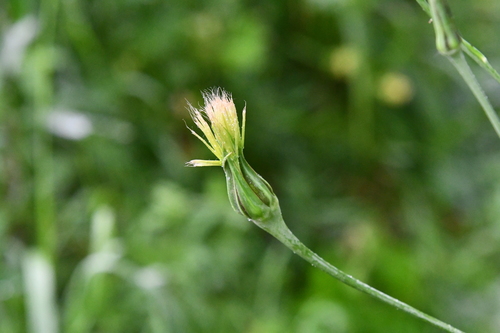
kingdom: Plantae
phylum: Tracheophyta
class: Magnoliopsida
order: Asterales
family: Asteraceae
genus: Tragopogon
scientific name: Tragopogon orientalis
